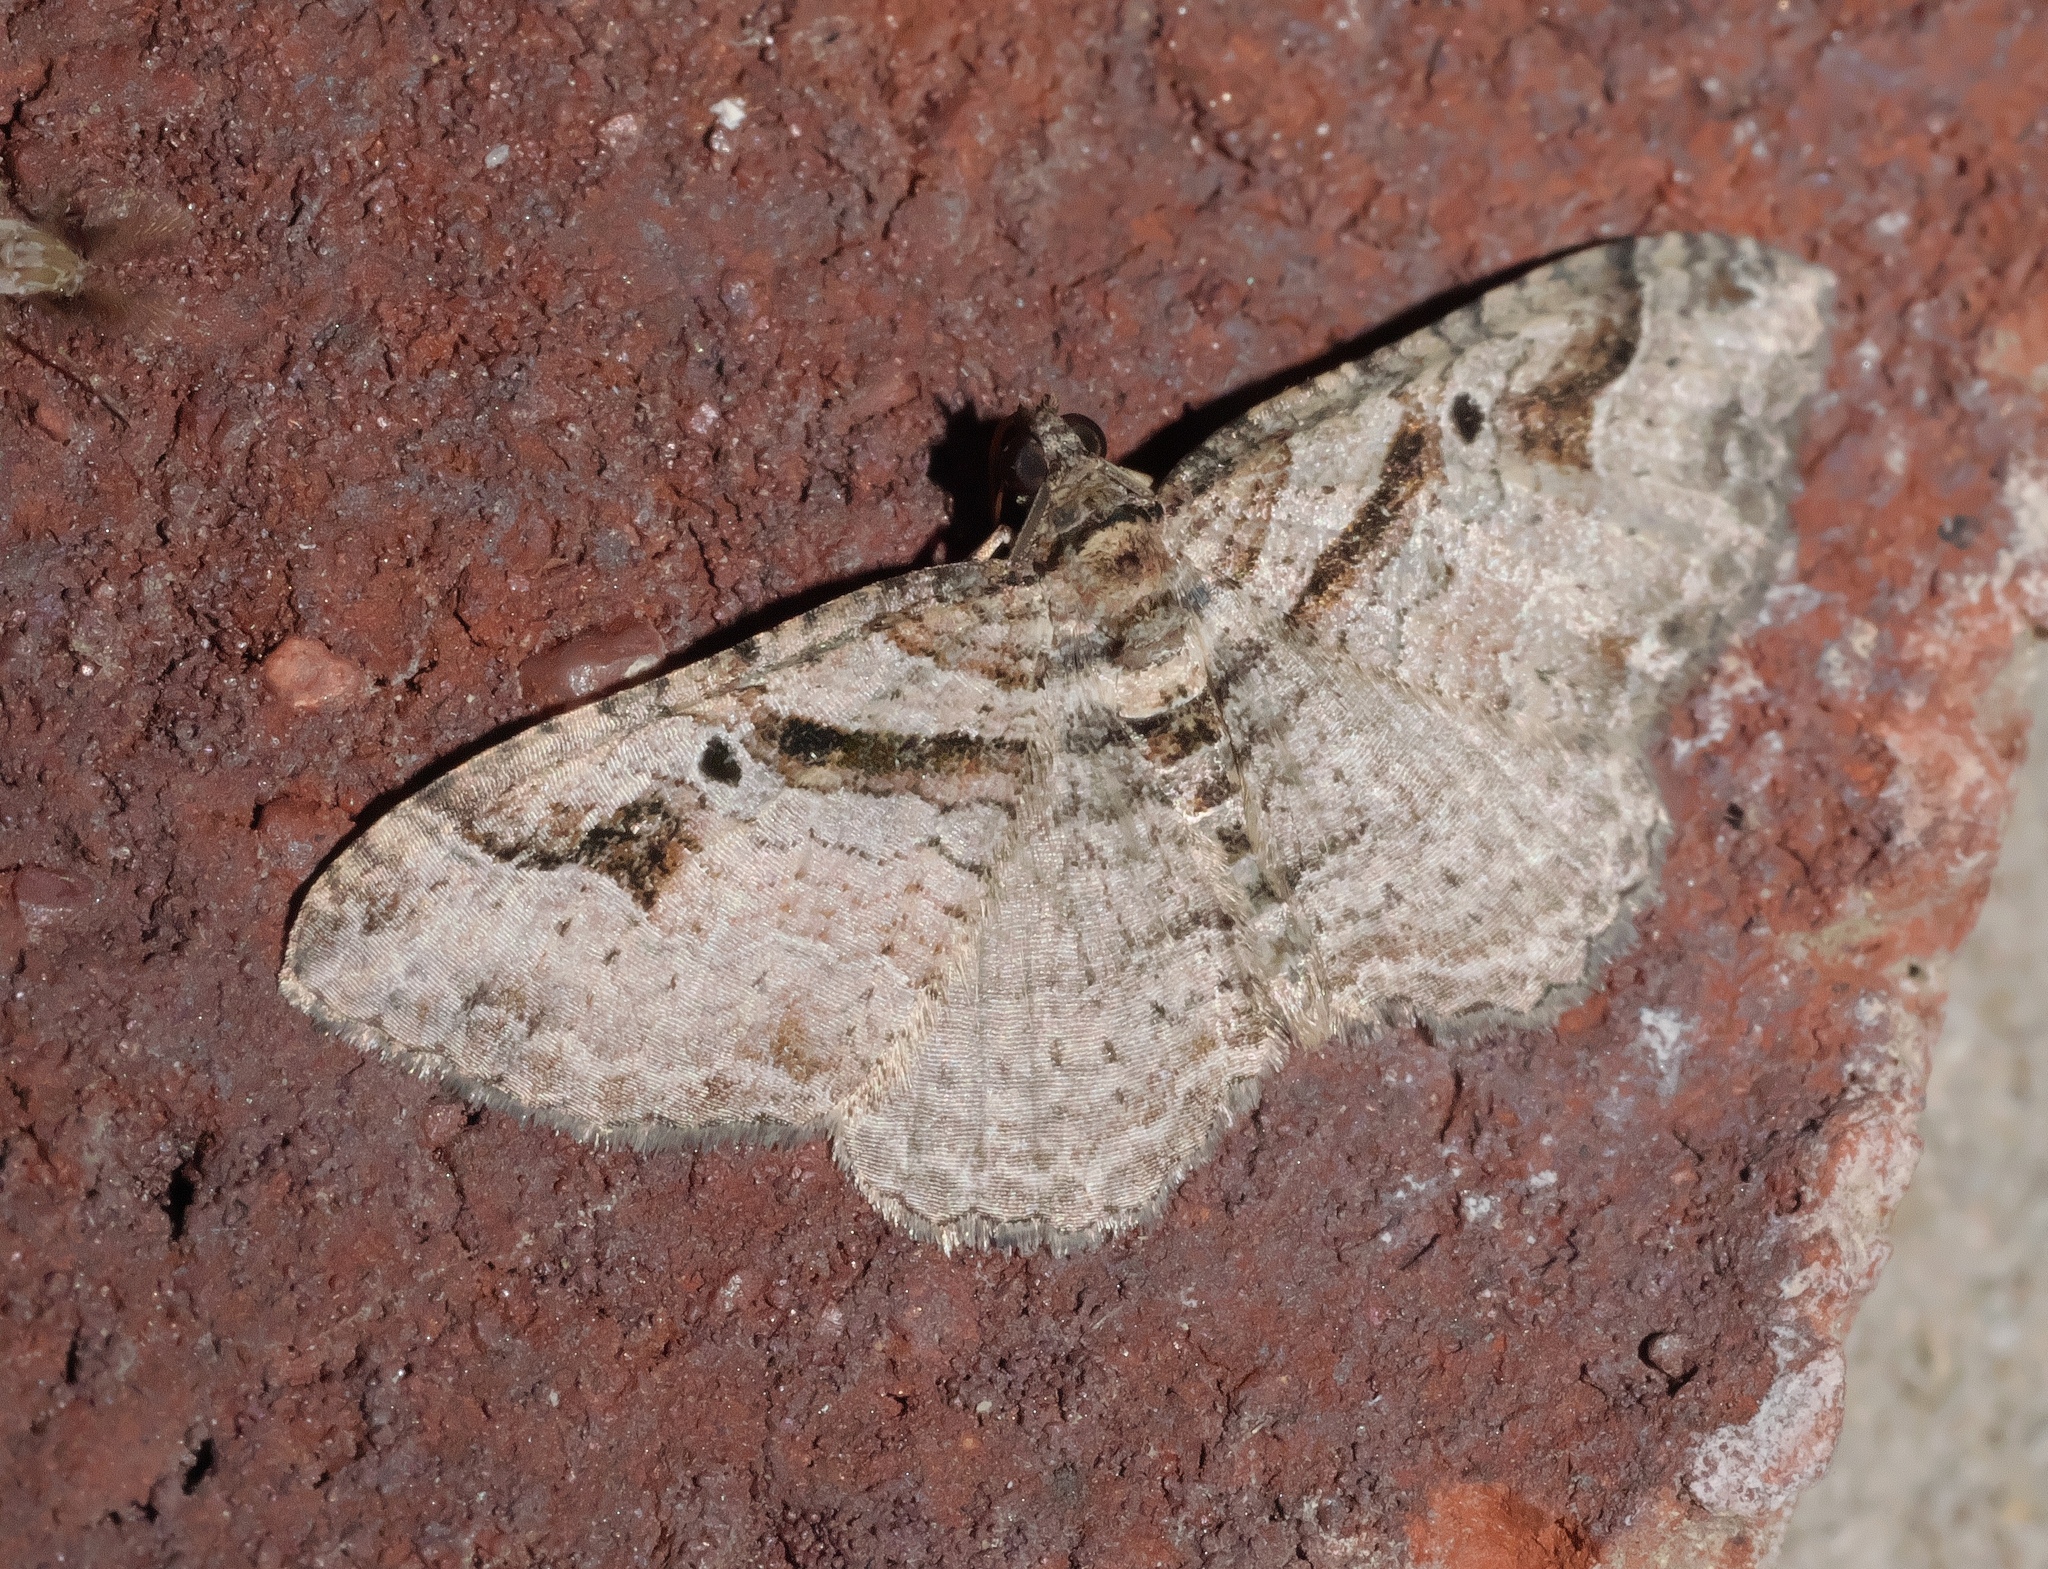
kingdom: Animalia
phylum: Arthropoda
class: Insecta
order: Lepidoptera
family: Geometridae
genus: Costaconvexa
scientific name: Costaconvexa centrostrigaria
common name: Bent-line carpet
